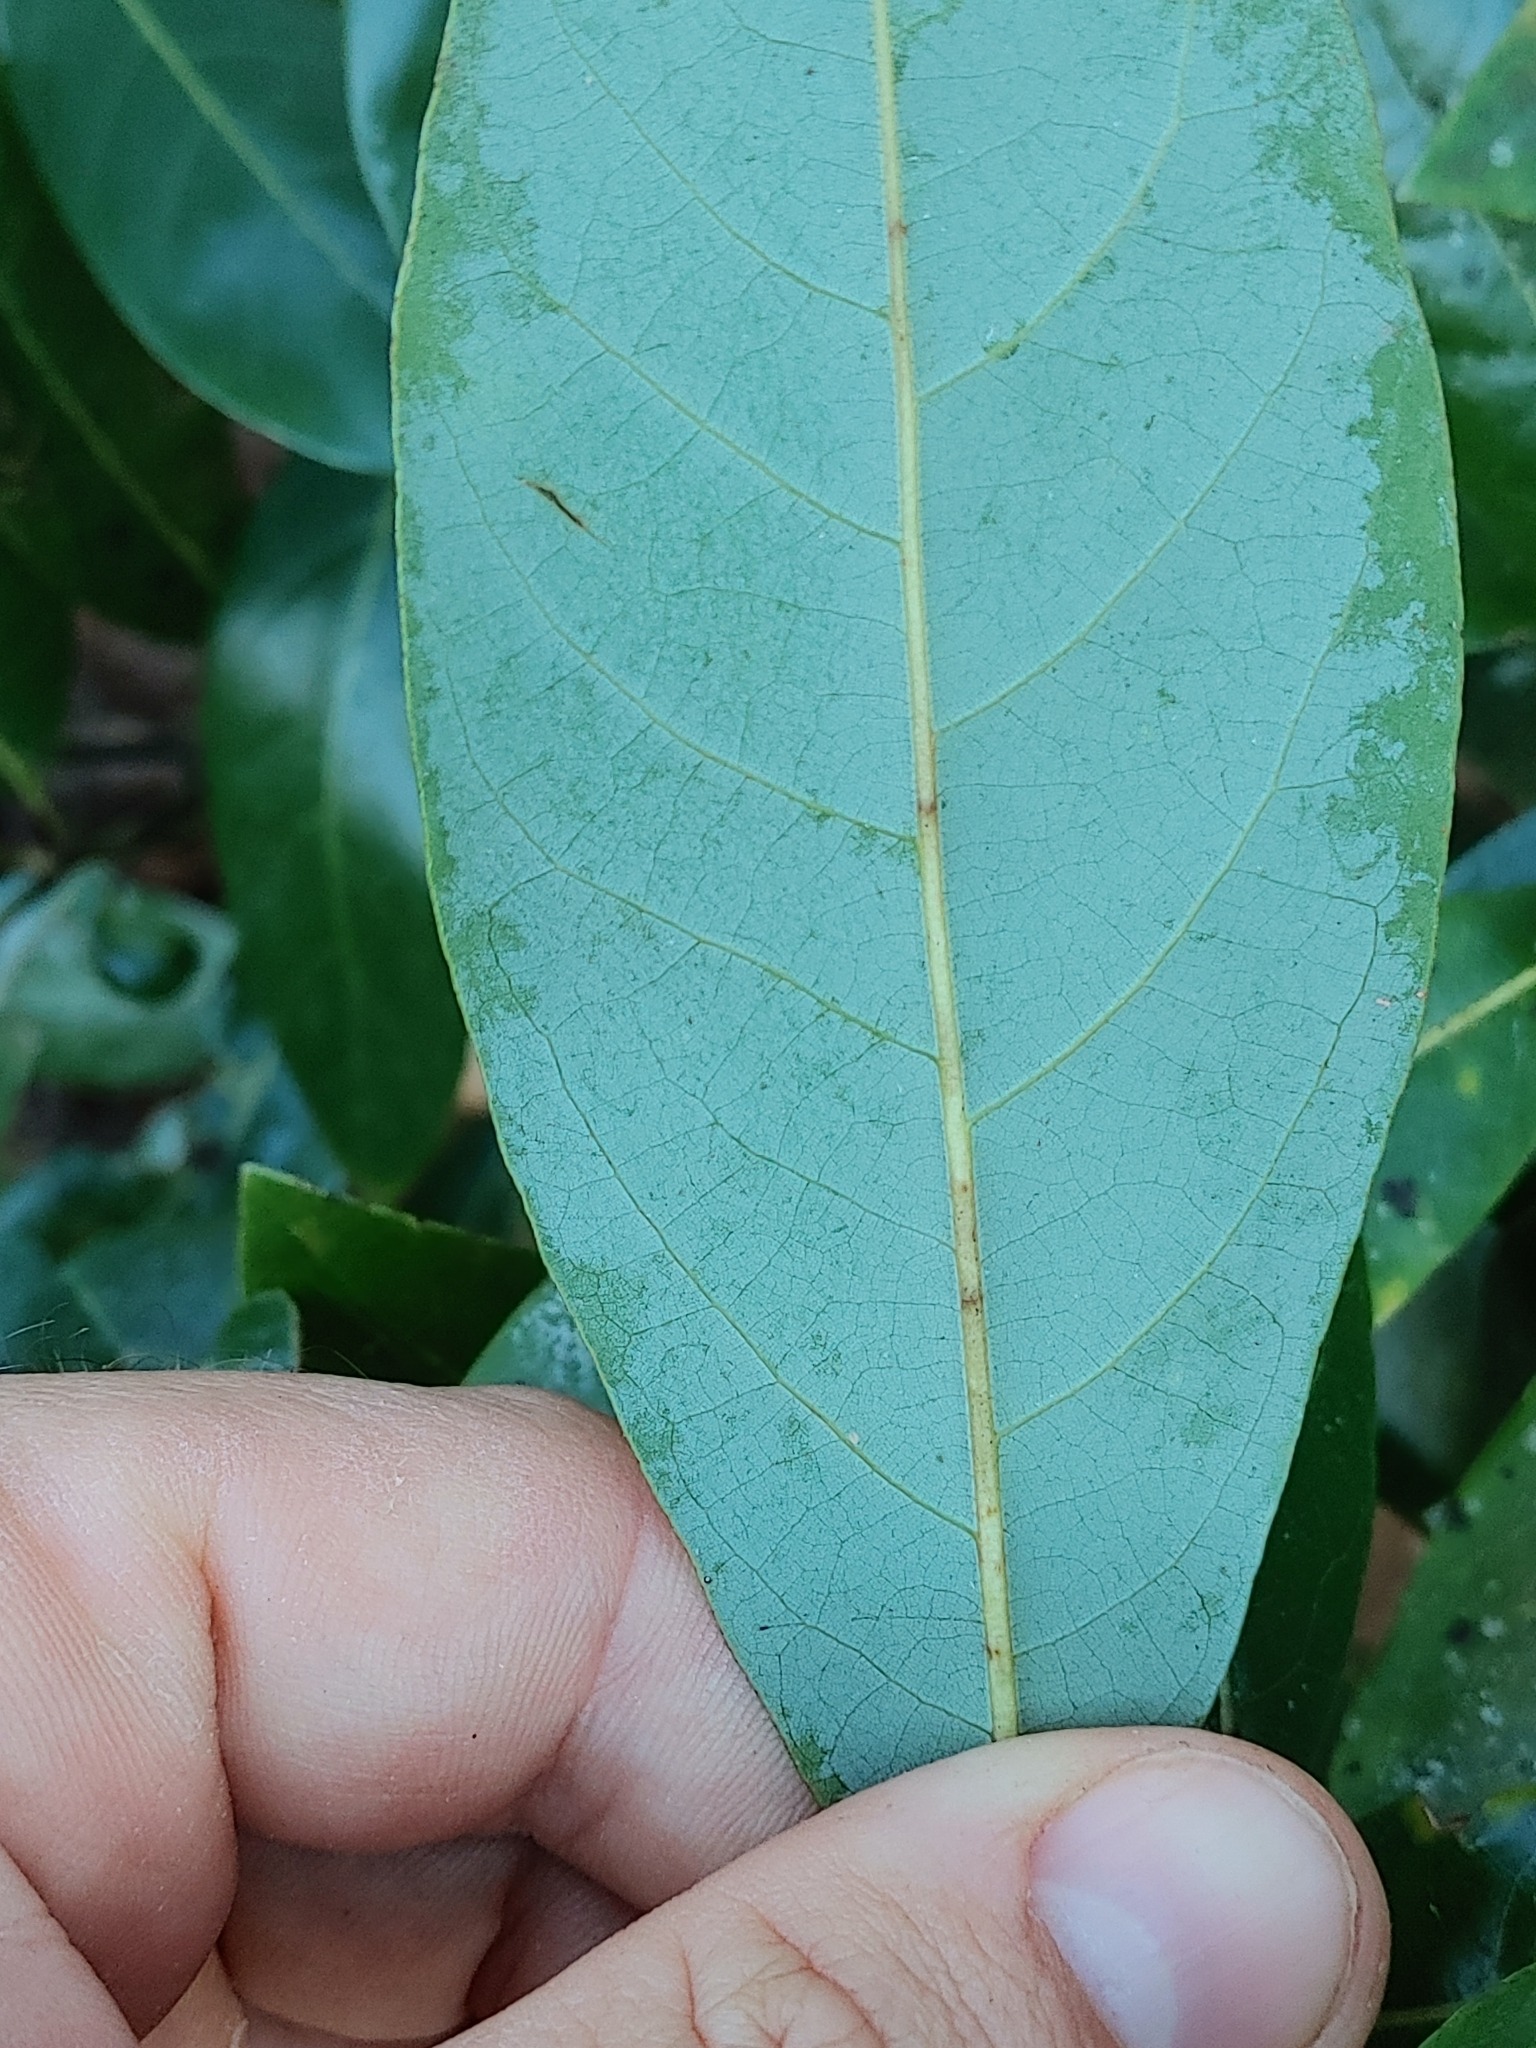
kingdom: Plantae
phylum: Tracheophyta
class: Magnoliopsida
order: Laurales
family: Lauraceae
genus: Persea
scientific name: Persea borbonia
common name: Redbay
